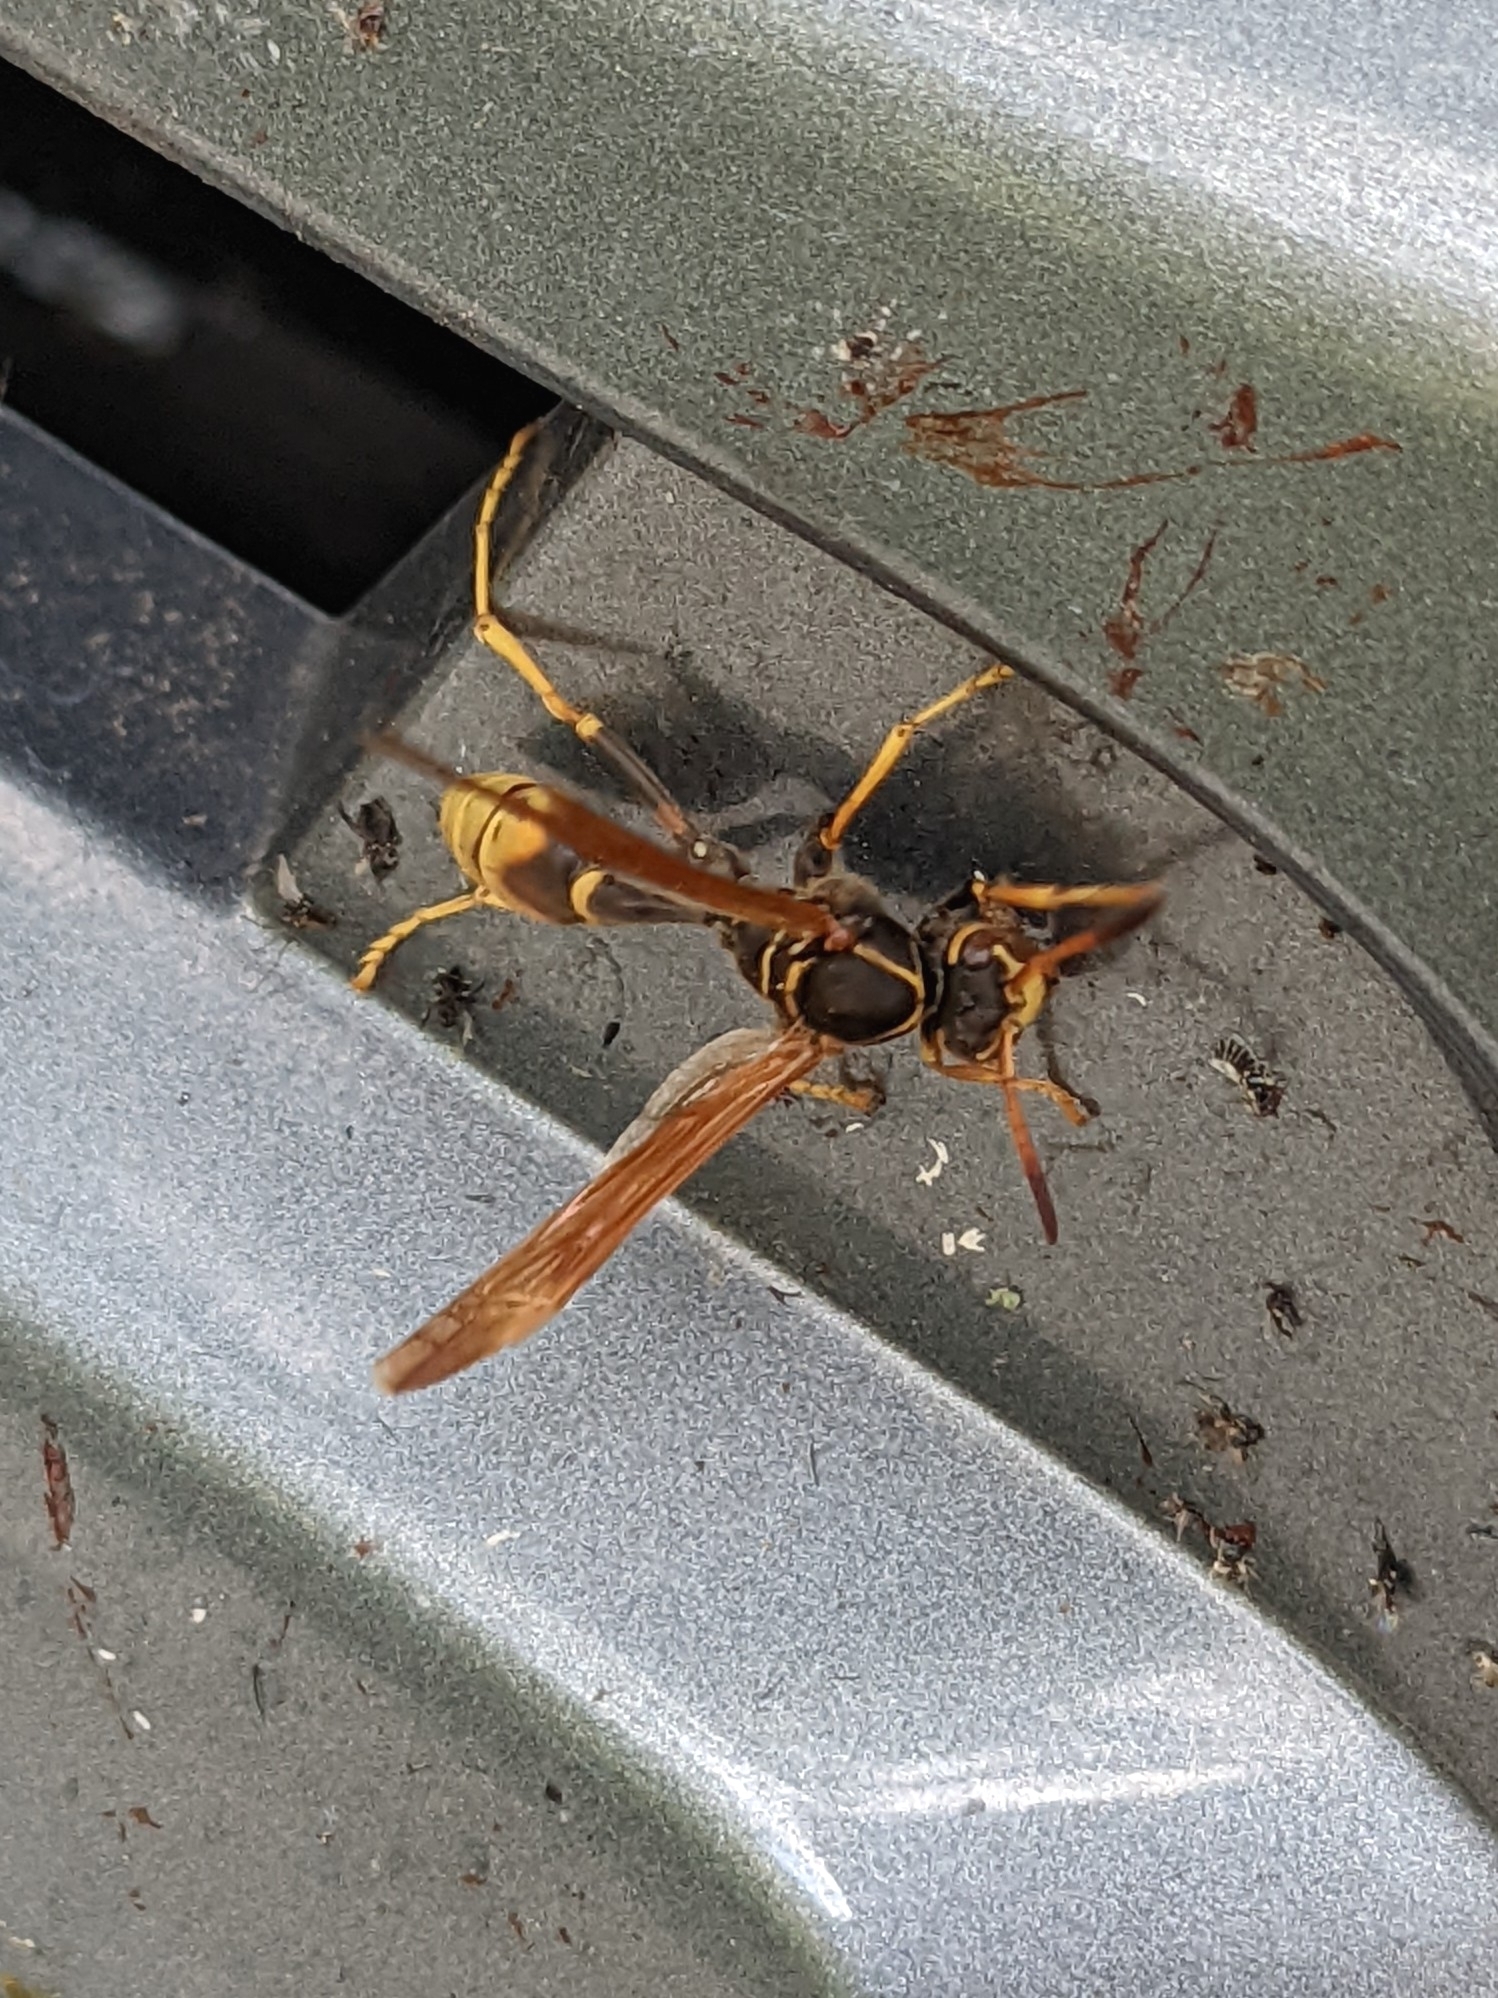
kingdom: Animalia
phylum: Arthropoda
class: Insecta
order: Hymenoptera
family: Vespidae
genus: Mischocyttarus
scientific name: Mischocyttarus flavitarsis
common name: Wasp
